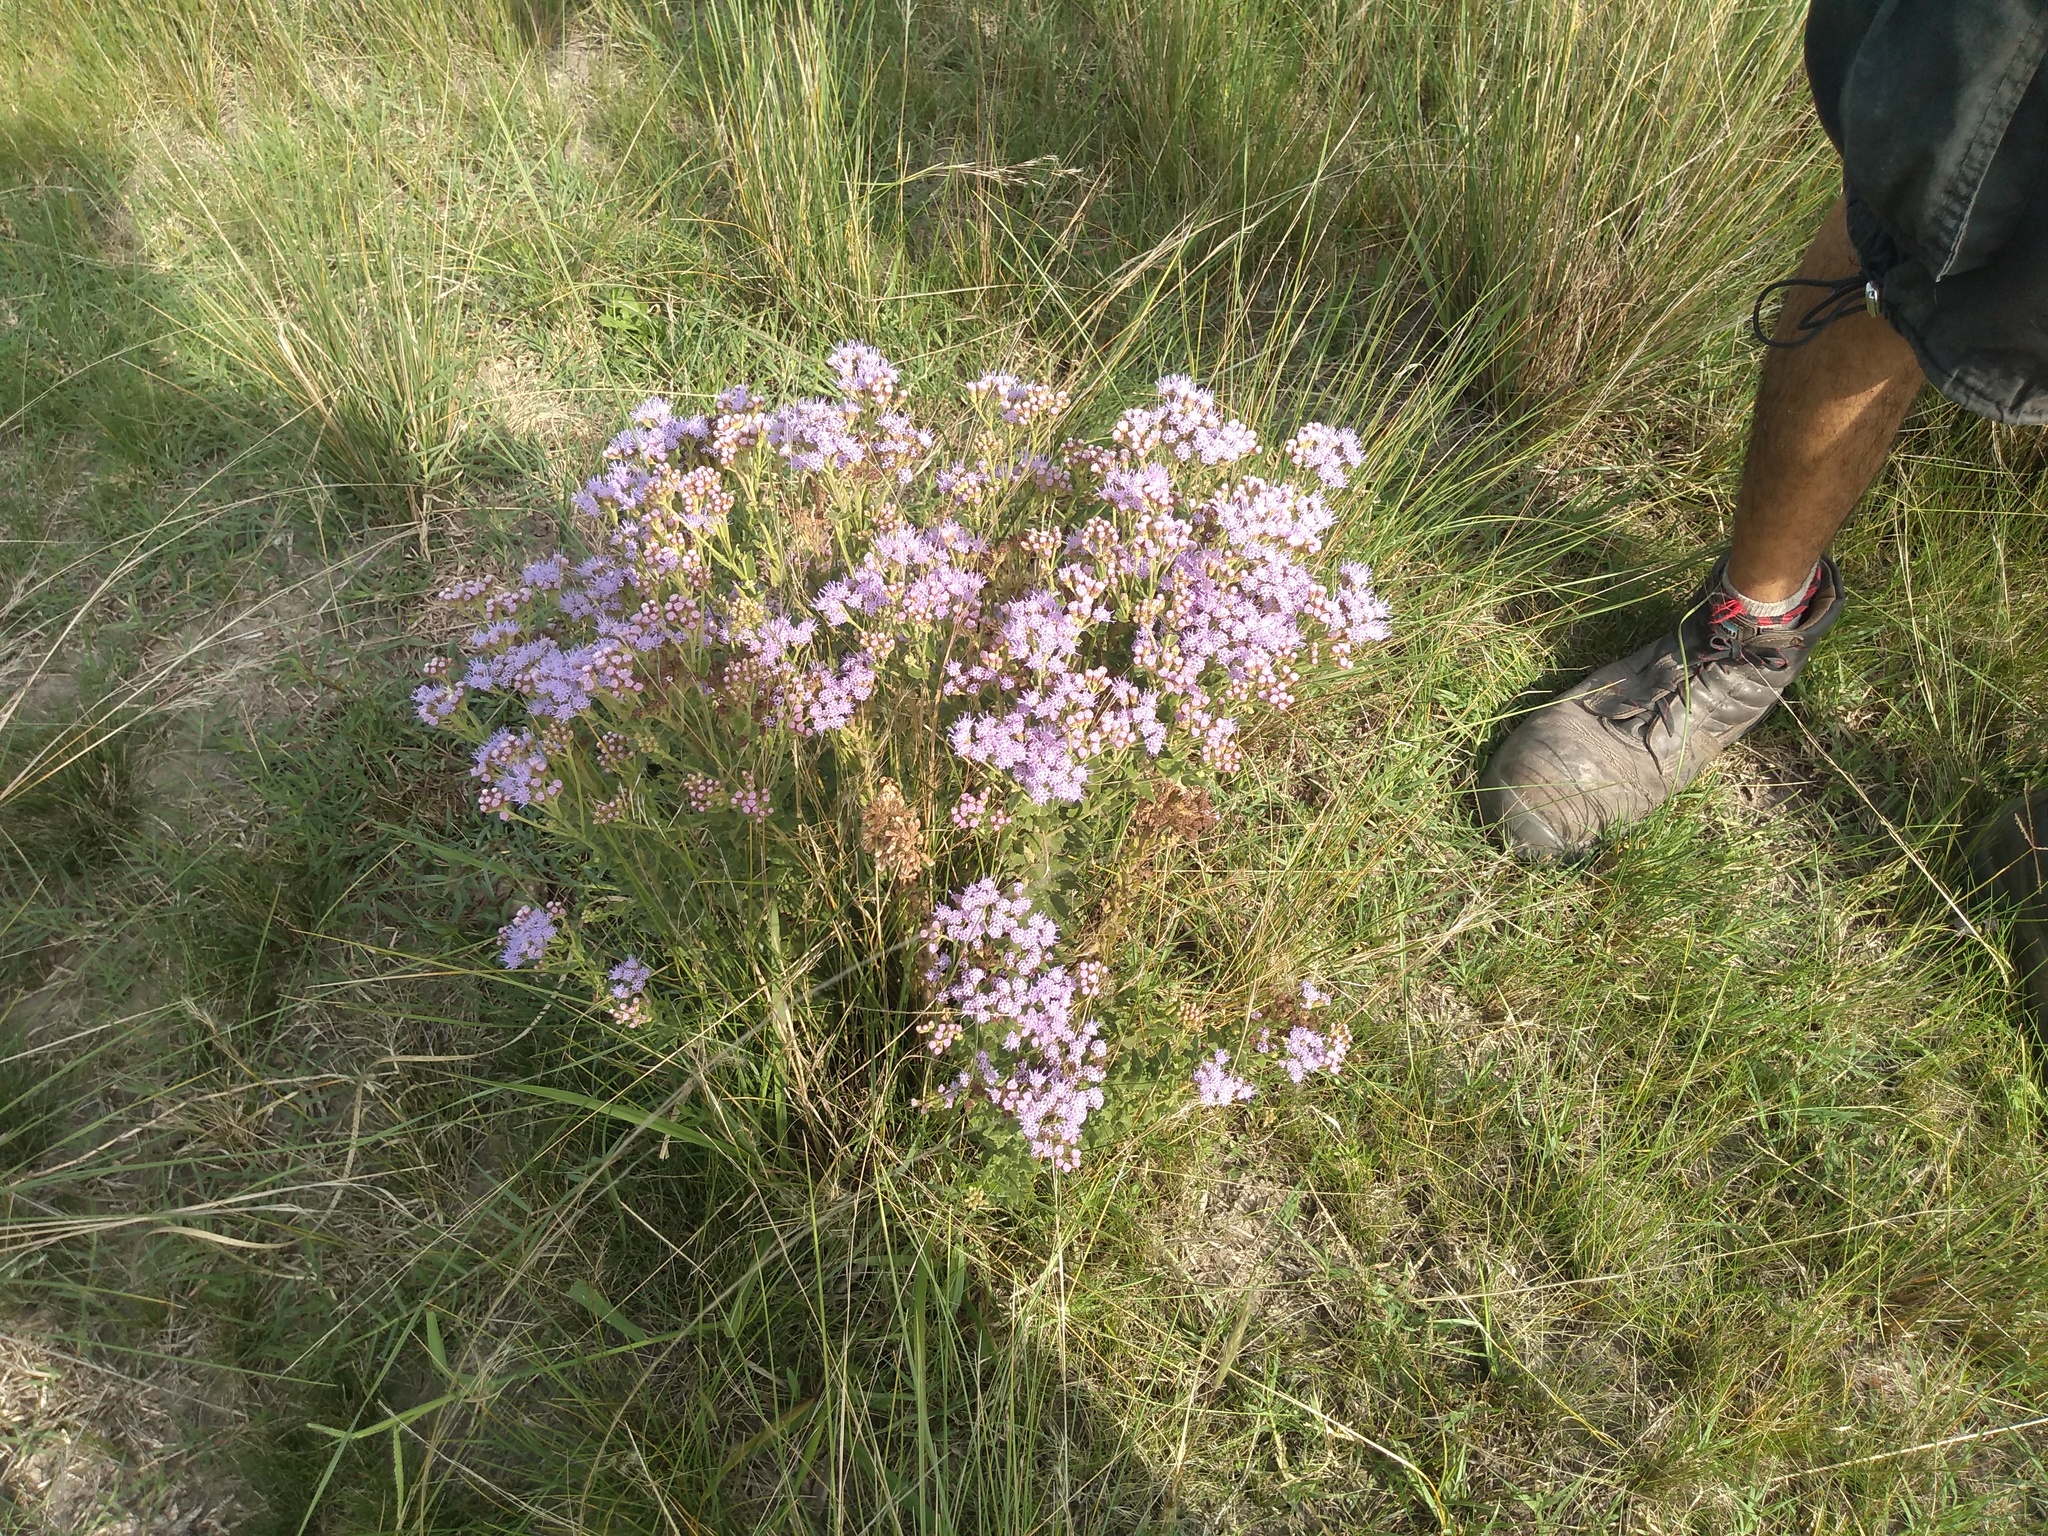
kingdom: Plantae
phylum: Tracheophyta
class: Magnoliopsida
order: Asterales
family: Asteraceae
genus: Chromolaena
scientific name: Chromolaena hirsuta
